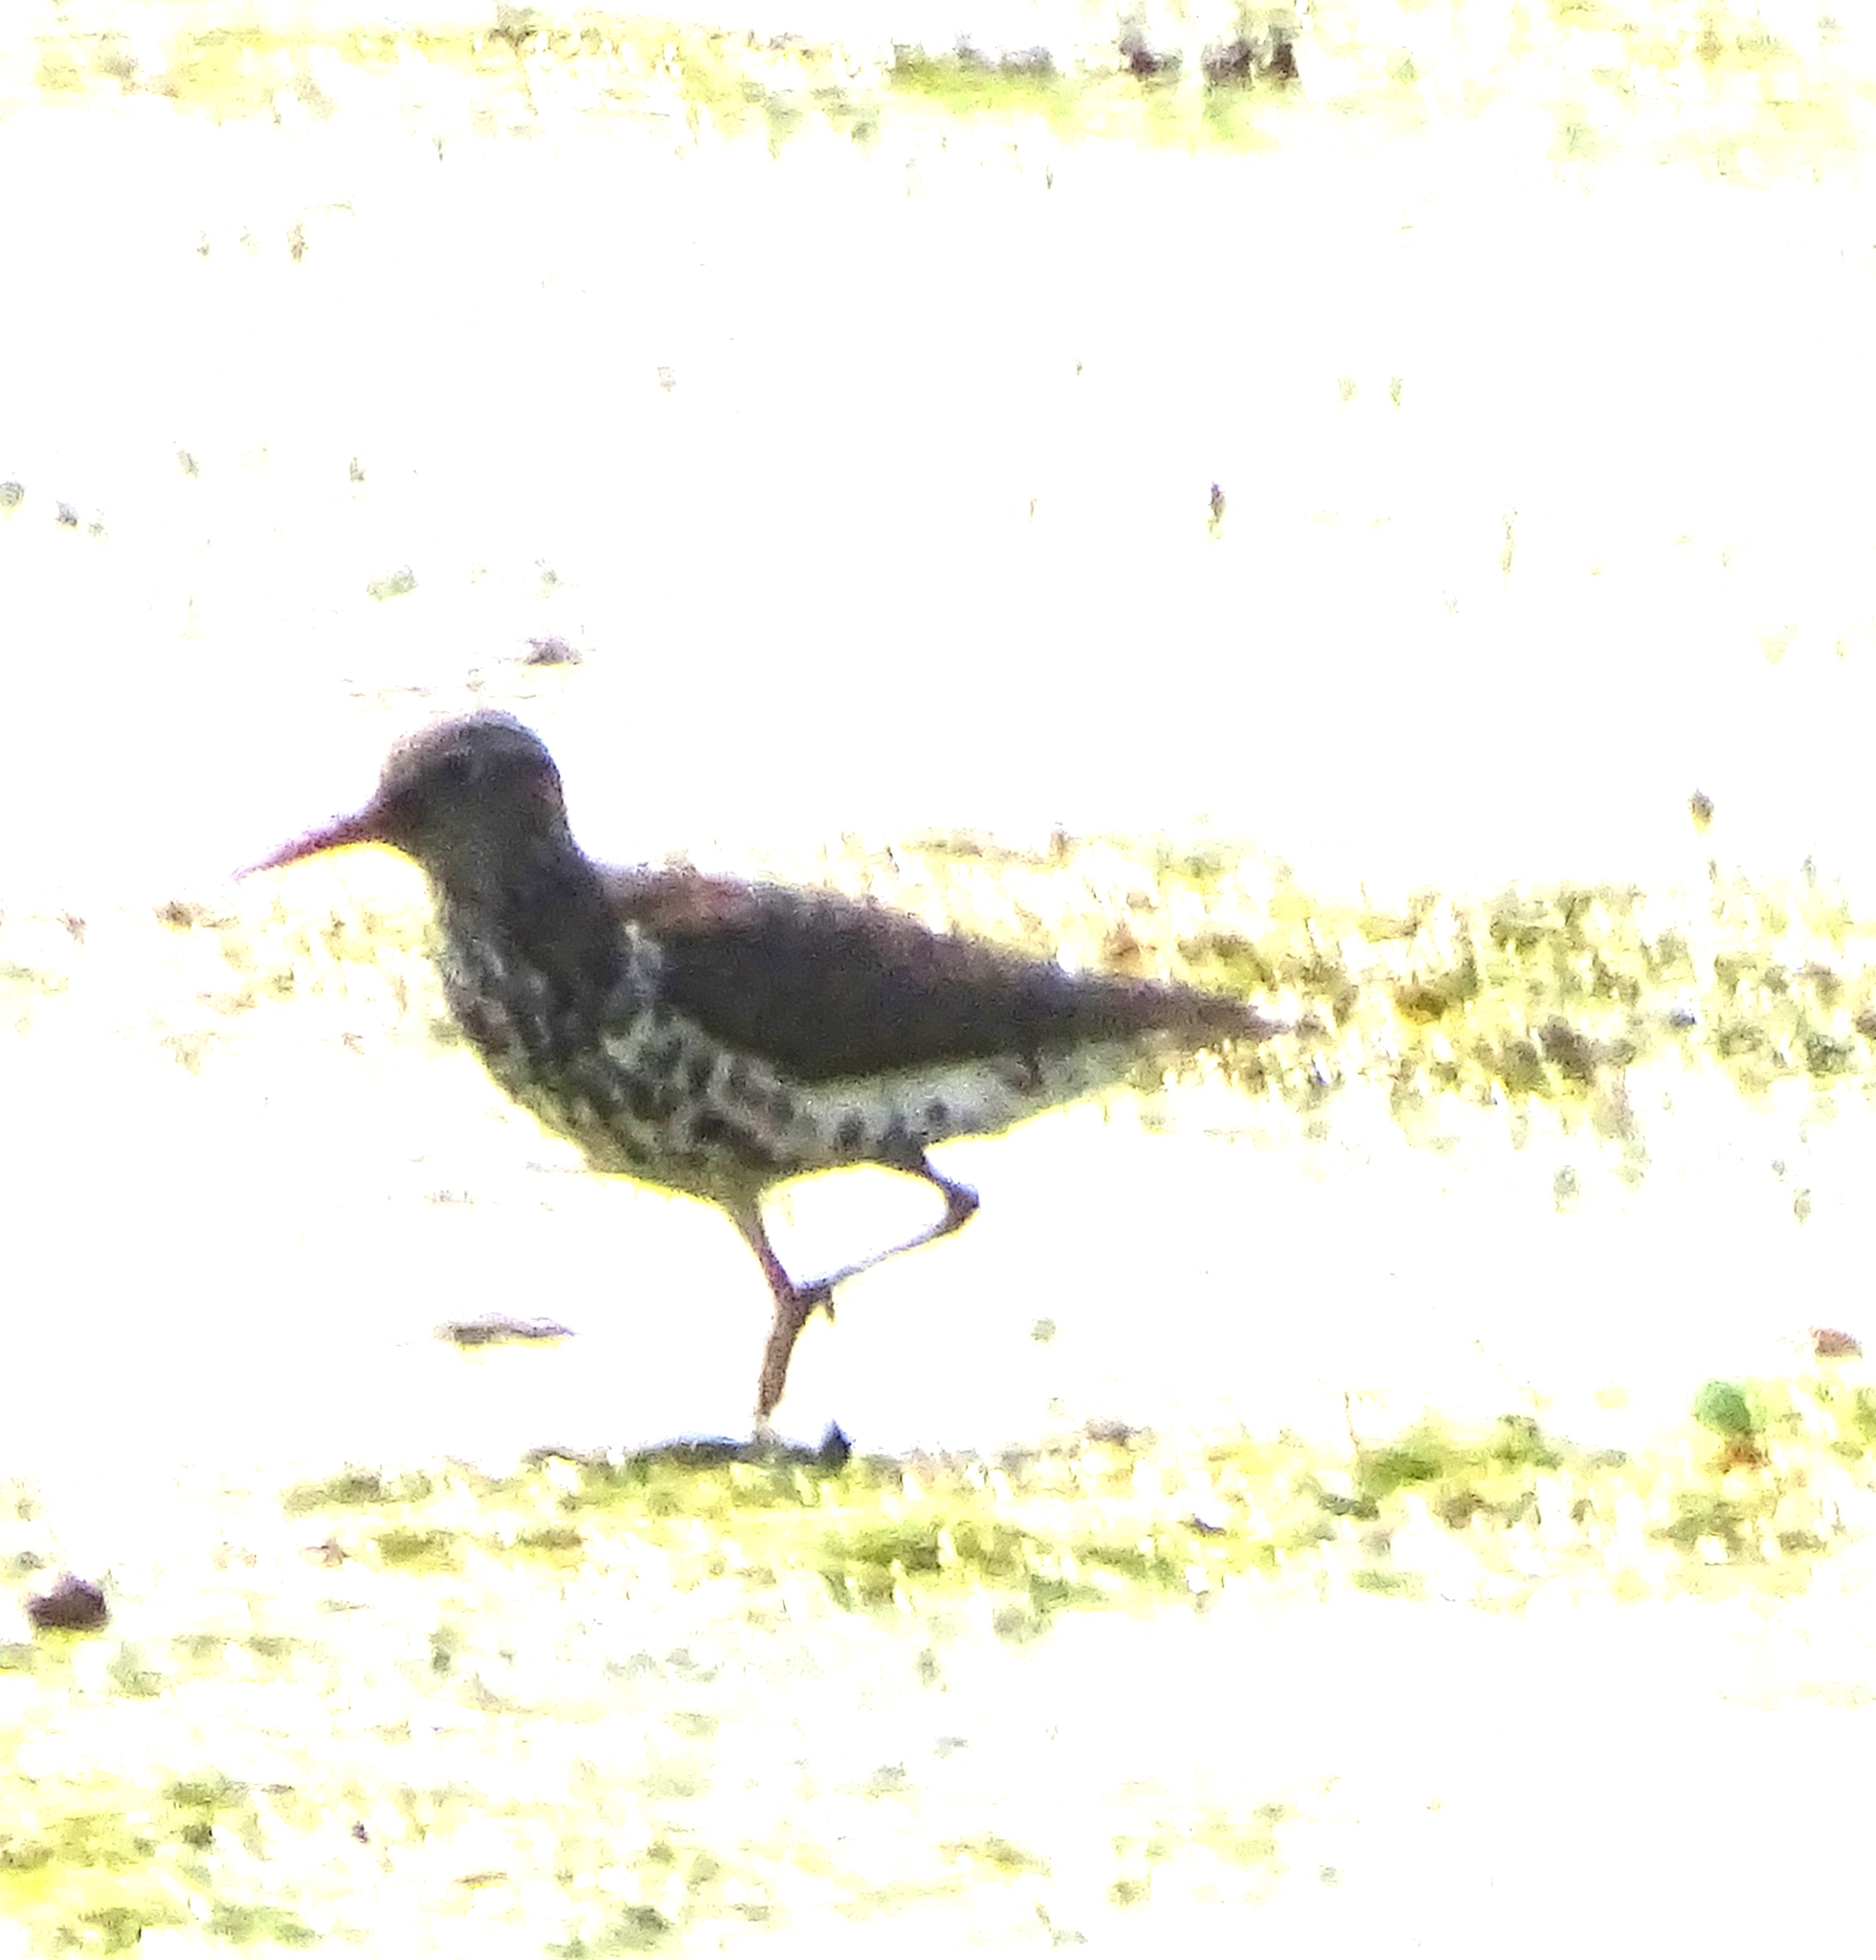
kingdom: Animalia
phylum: Chordata
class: Aves
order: Charadriiformes
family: Scolopacidae
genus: Actitis
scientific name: Actitis macularius
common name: Spotted sandpiper
